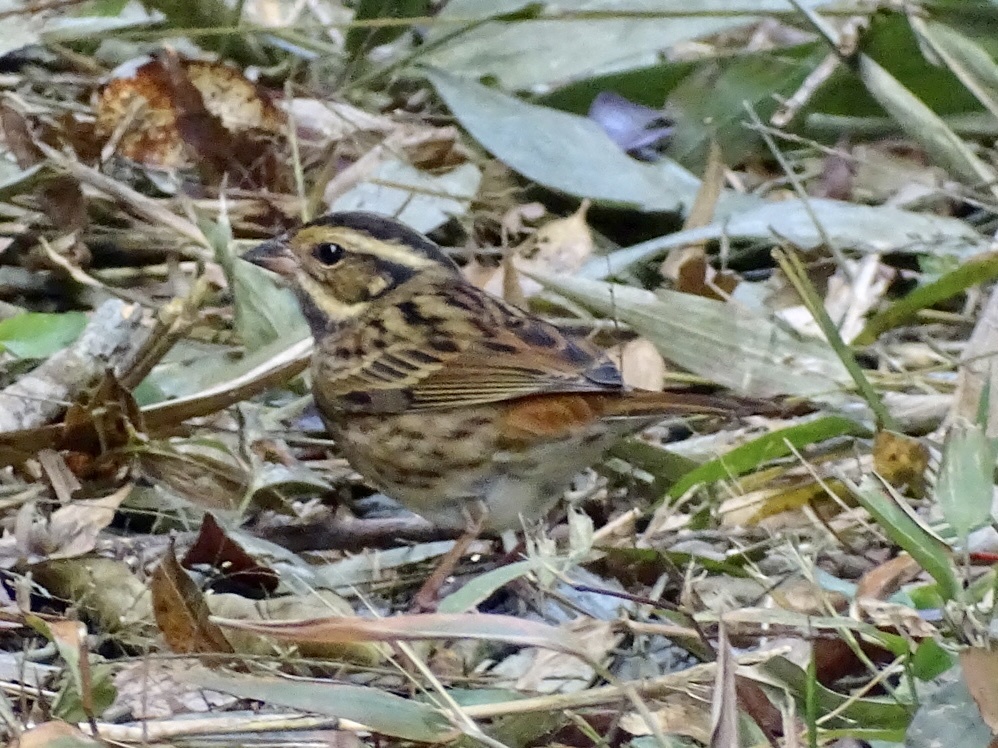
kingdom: Animalia
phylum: Chordata
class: Aves
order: Passeriformes
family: Emberizidae
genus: Emberiza
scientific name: Emberiza tristrami
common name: Tristram's bunting
